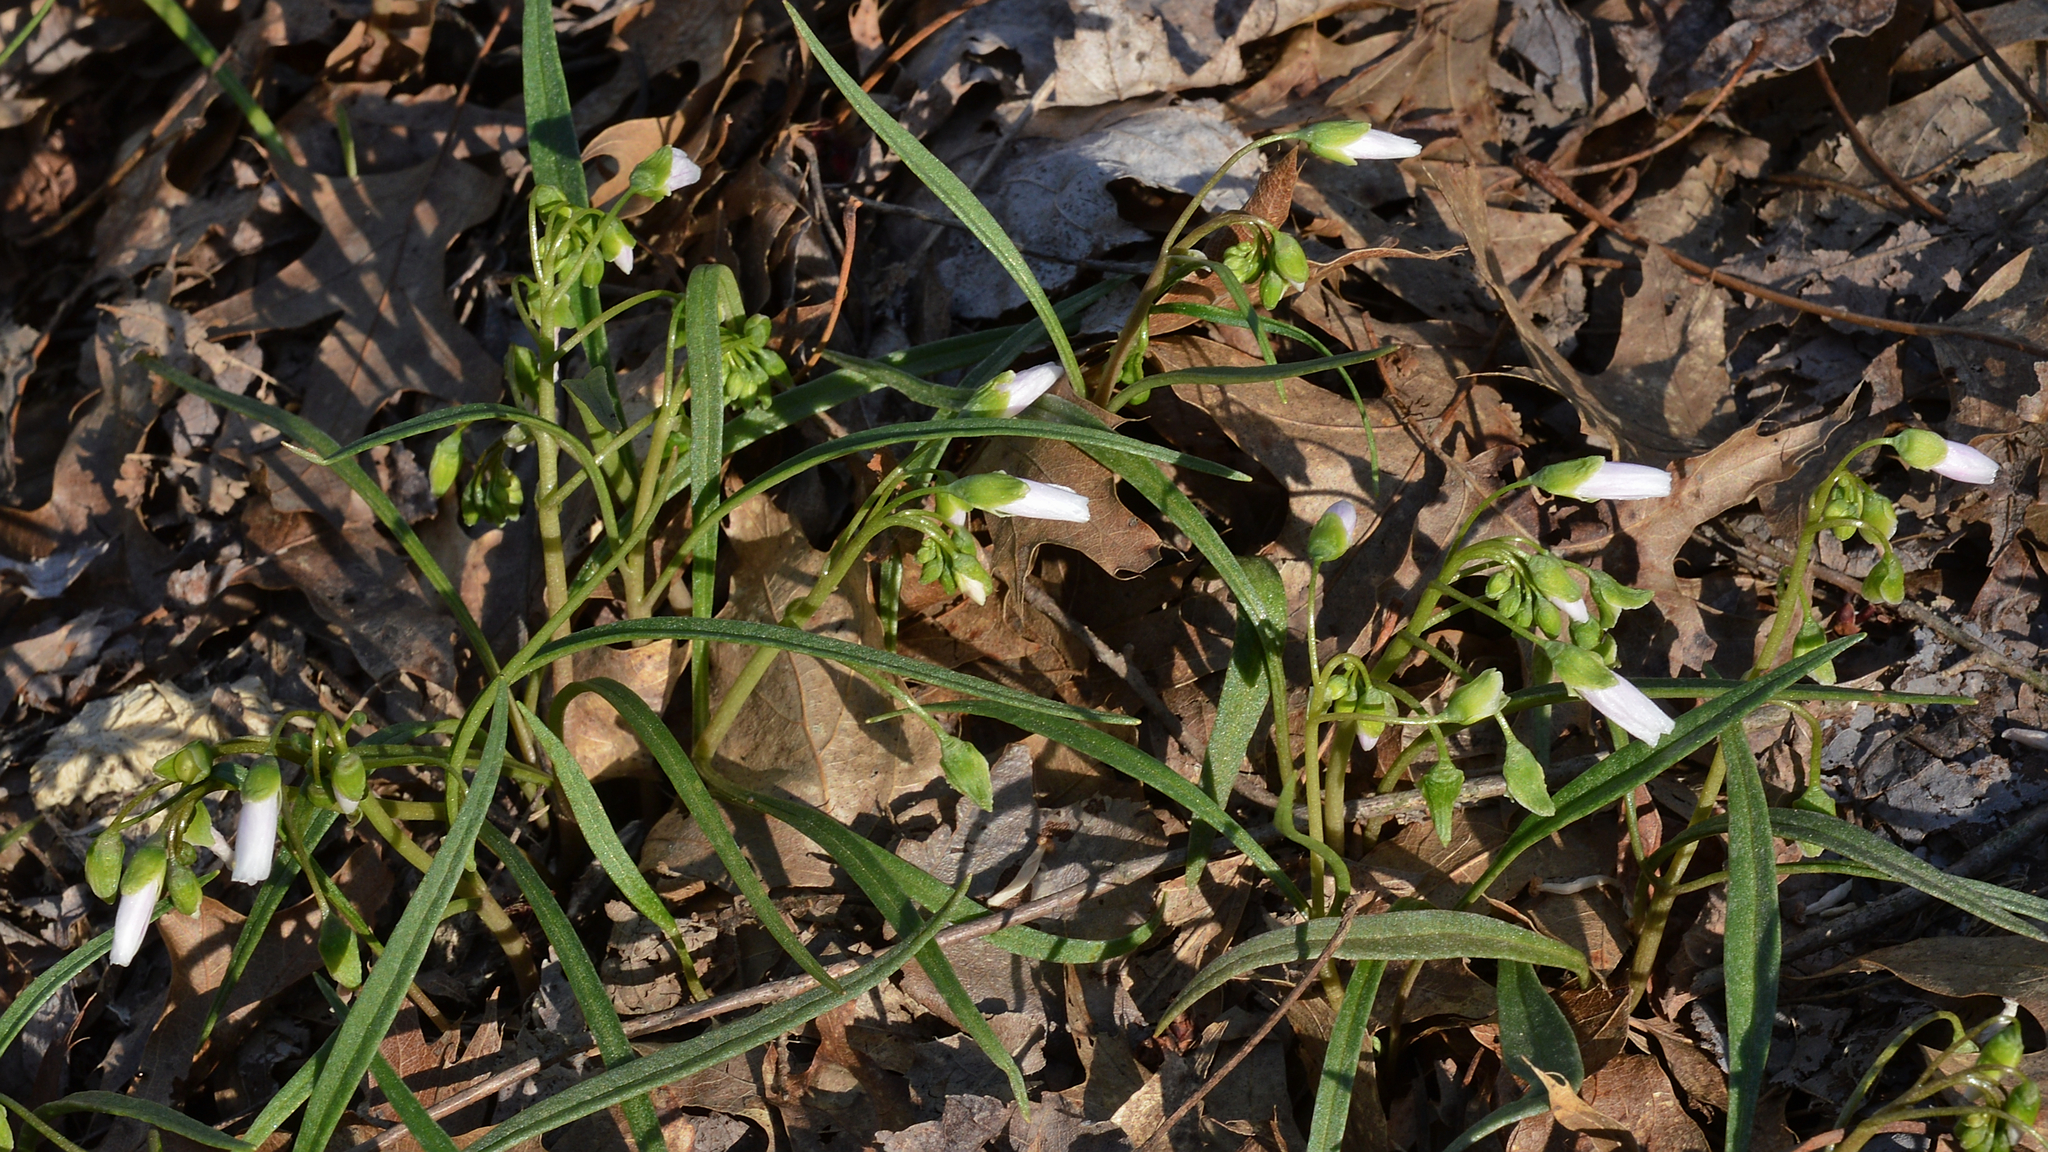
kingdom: Plantae
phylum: Tracheophyta
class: Magnoliopsida
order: Caryophyllales
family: Montiaceae
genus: Claytonia
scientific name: Claytonia virginica
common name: Virginia springbeauty
